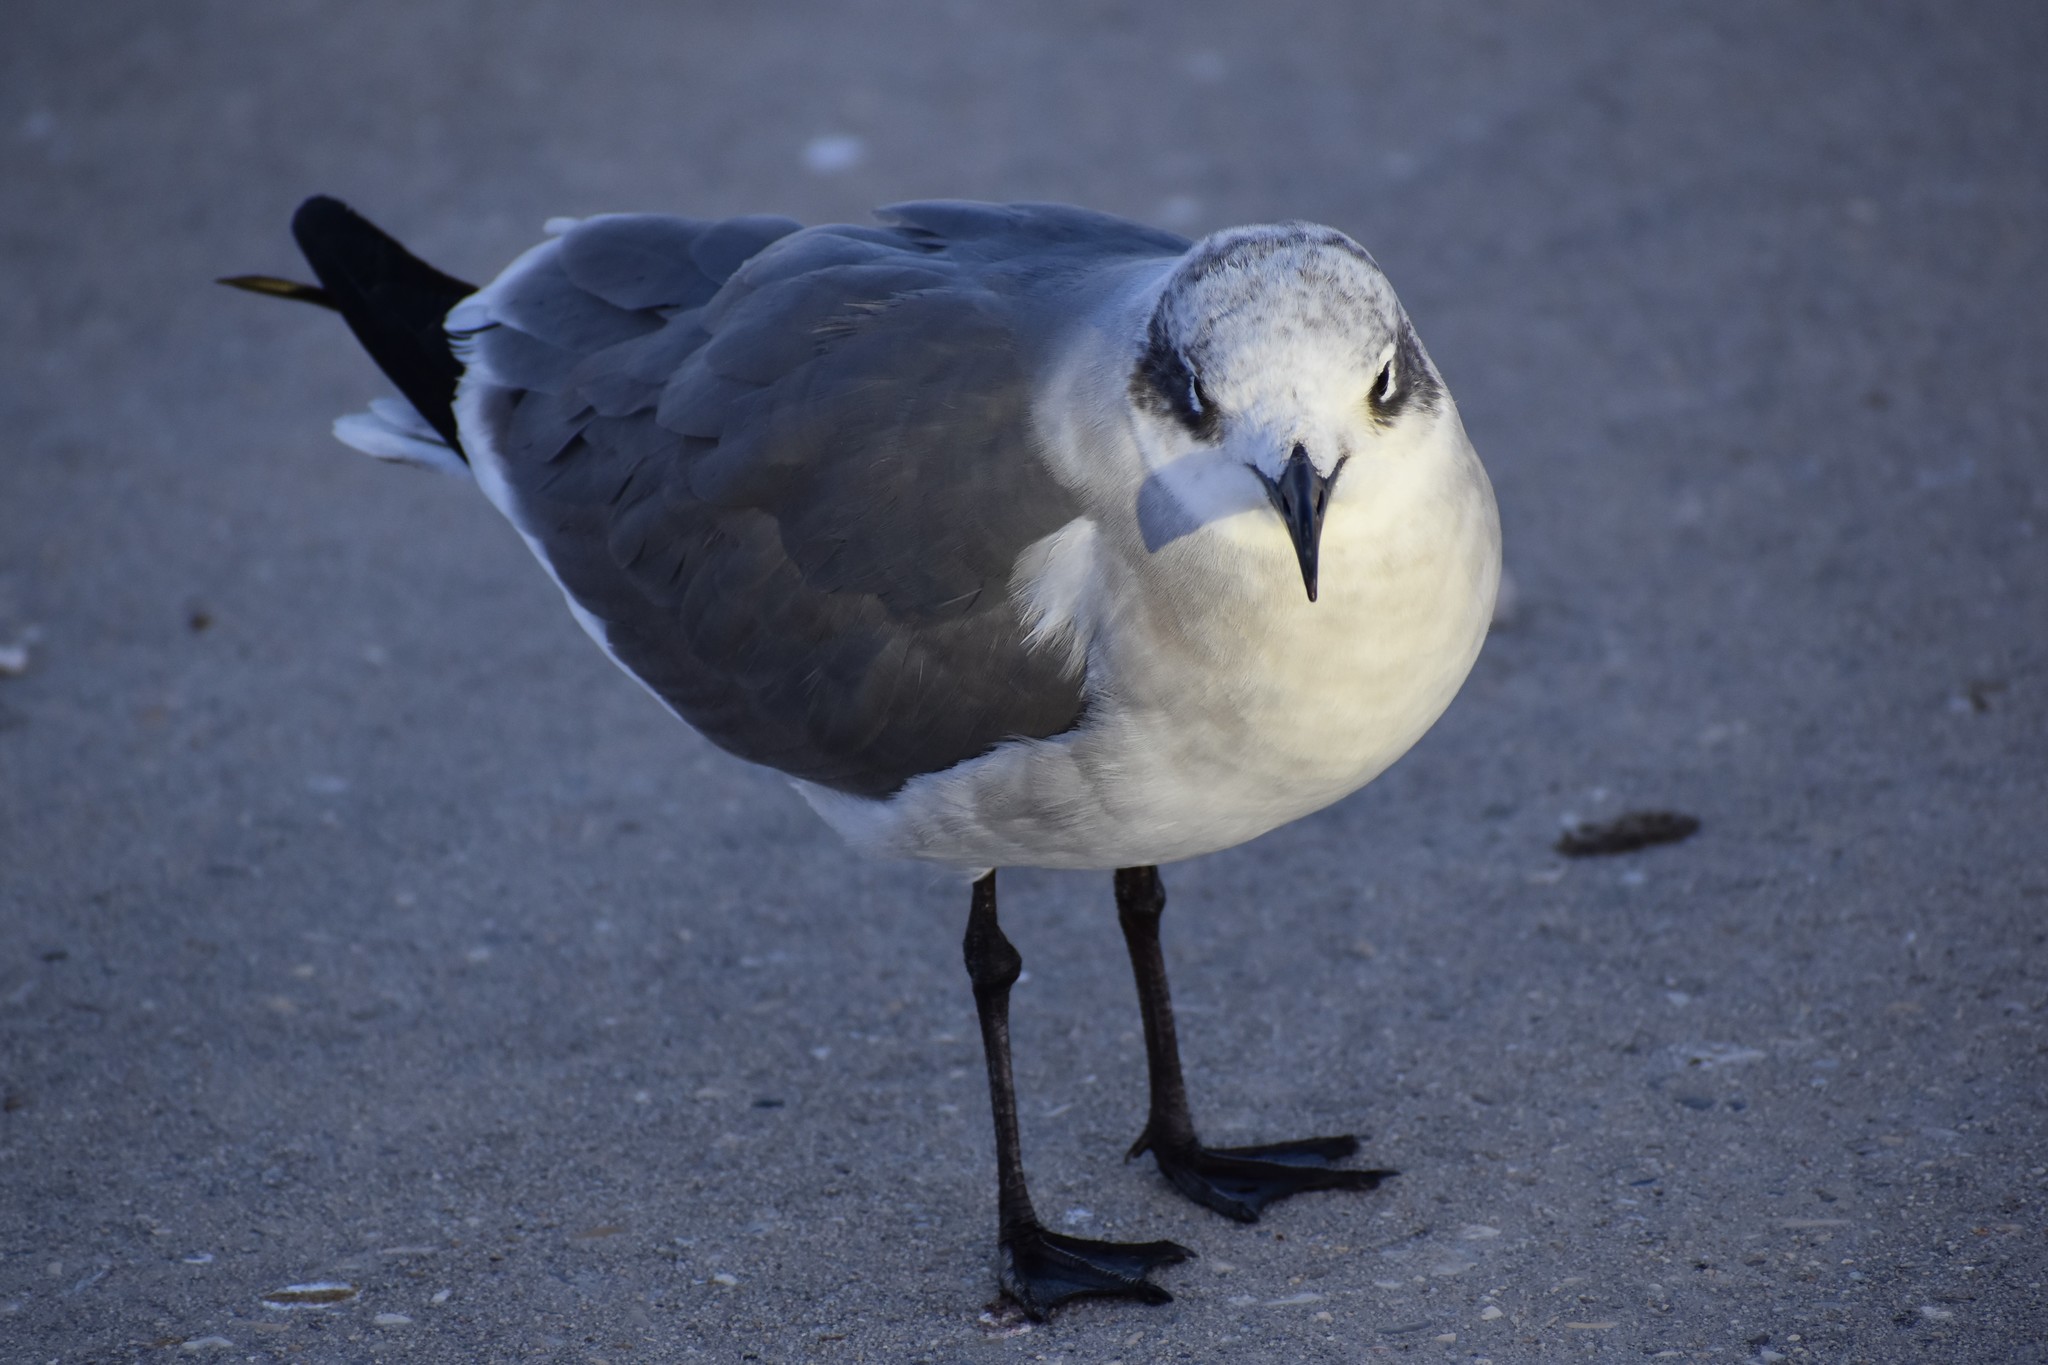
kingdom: Animalia
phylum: Chordata
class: Aves
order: Charadriiformes
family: Laridae
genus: Leucophaeus
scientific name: Leucophaeus atricilla
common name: Laughing gull
